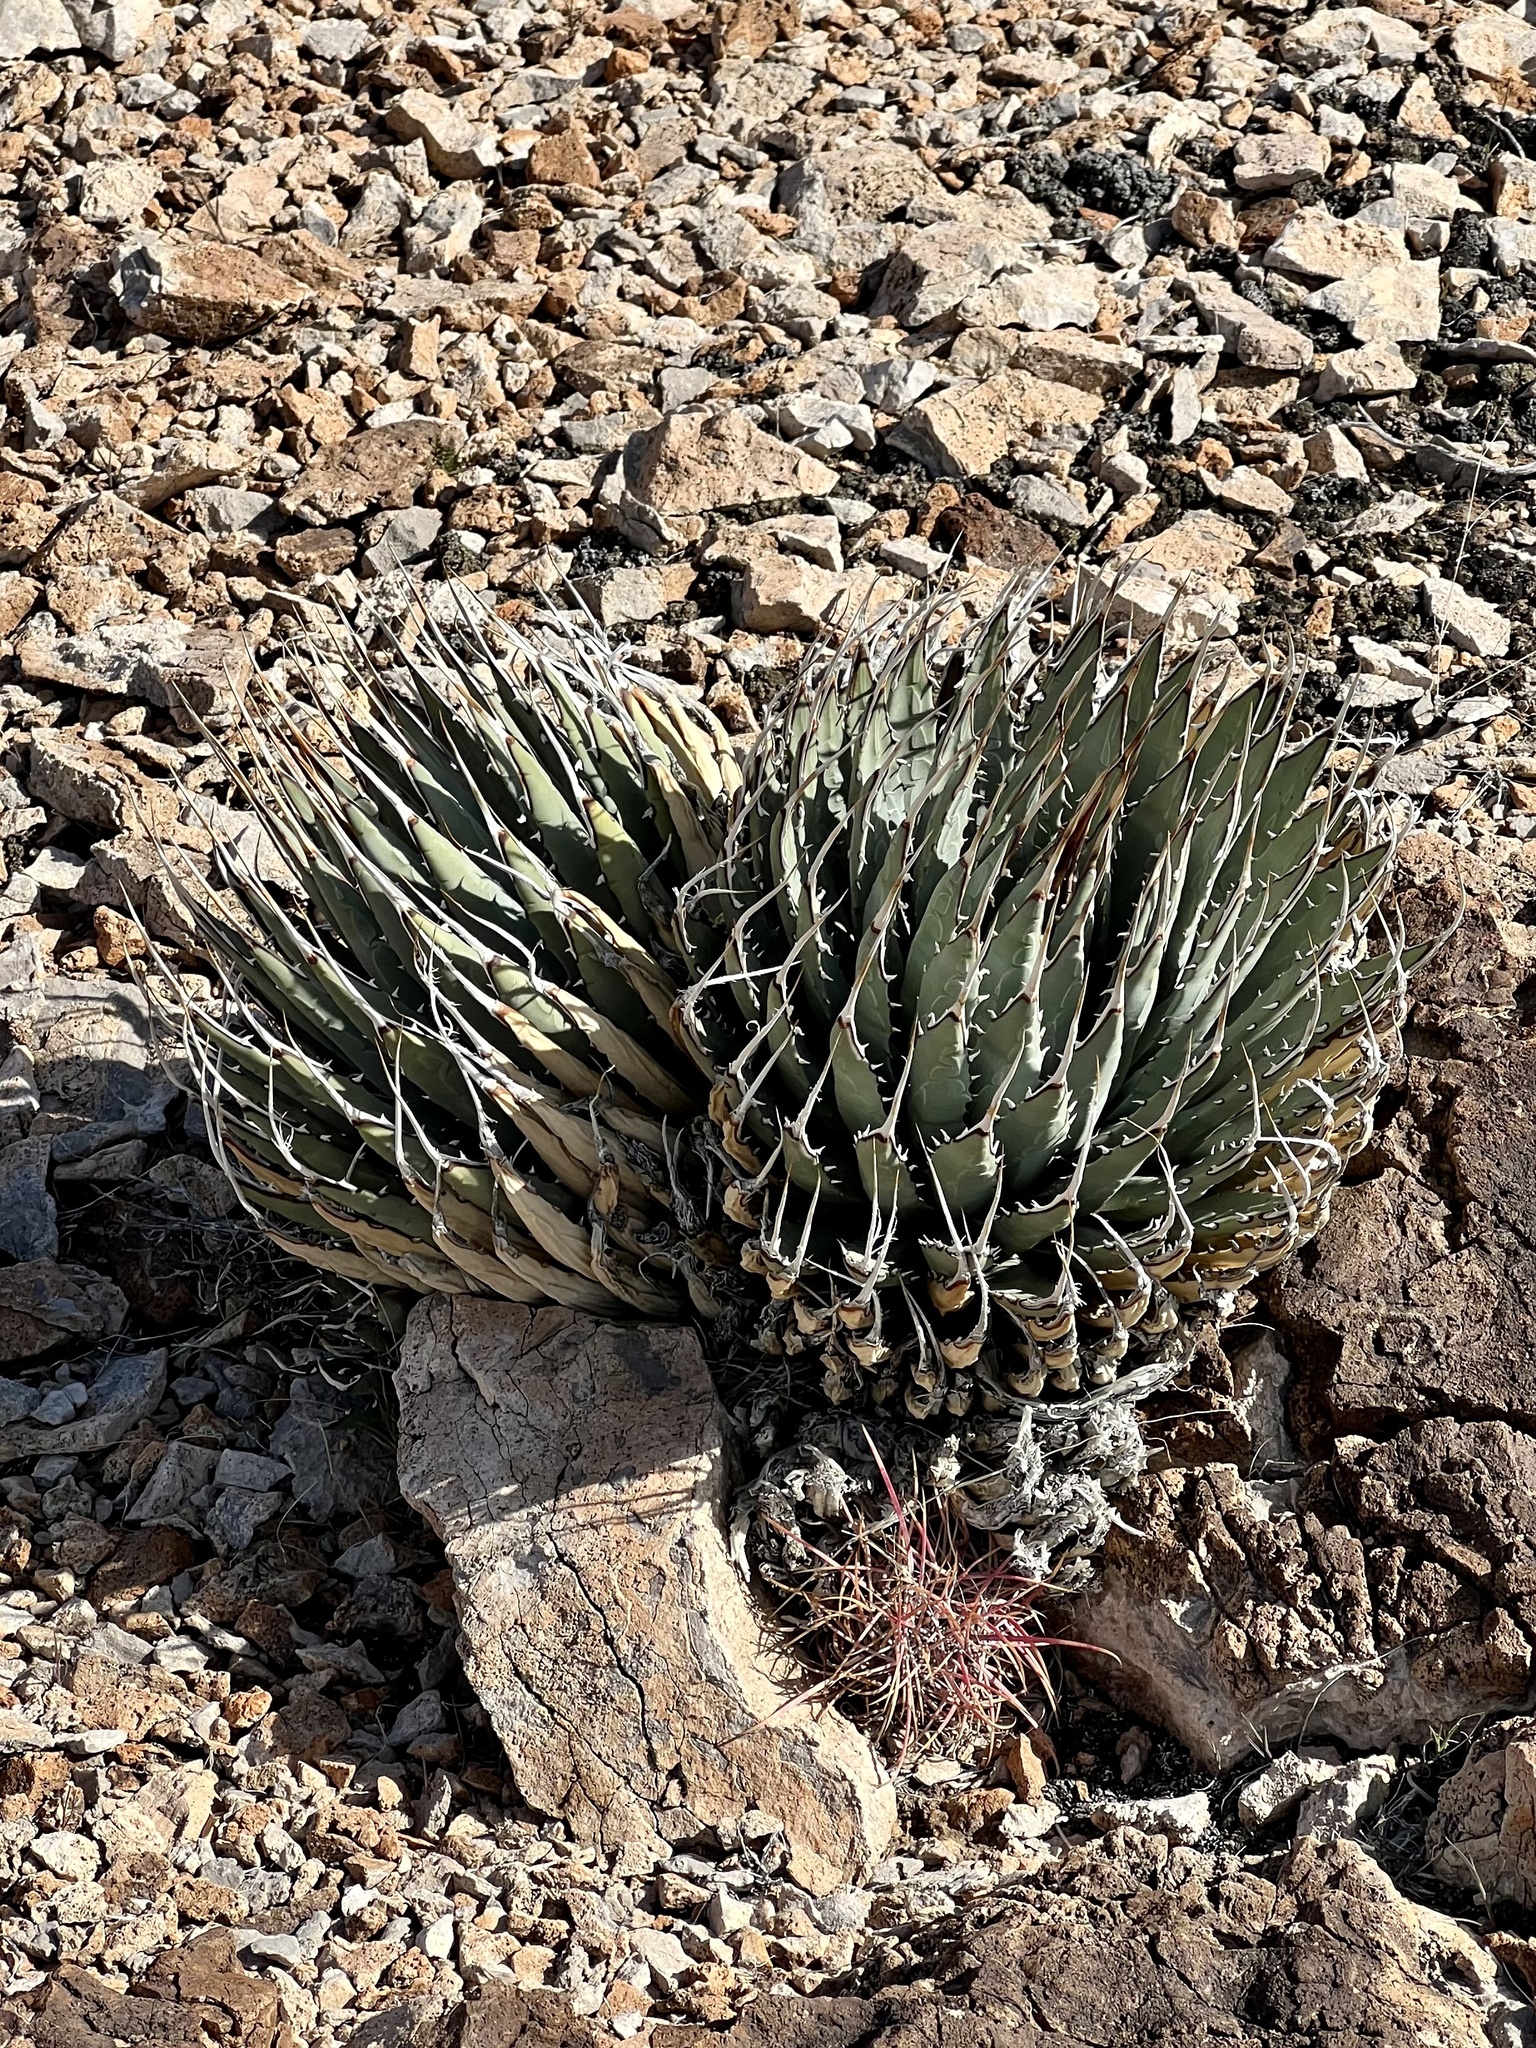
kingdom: Plantae
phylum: Tracheophyta
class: Liliopsida
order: Asparagales
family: Asparagaceae
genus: Agave
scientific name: Agave utahensis
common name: Utah agave
